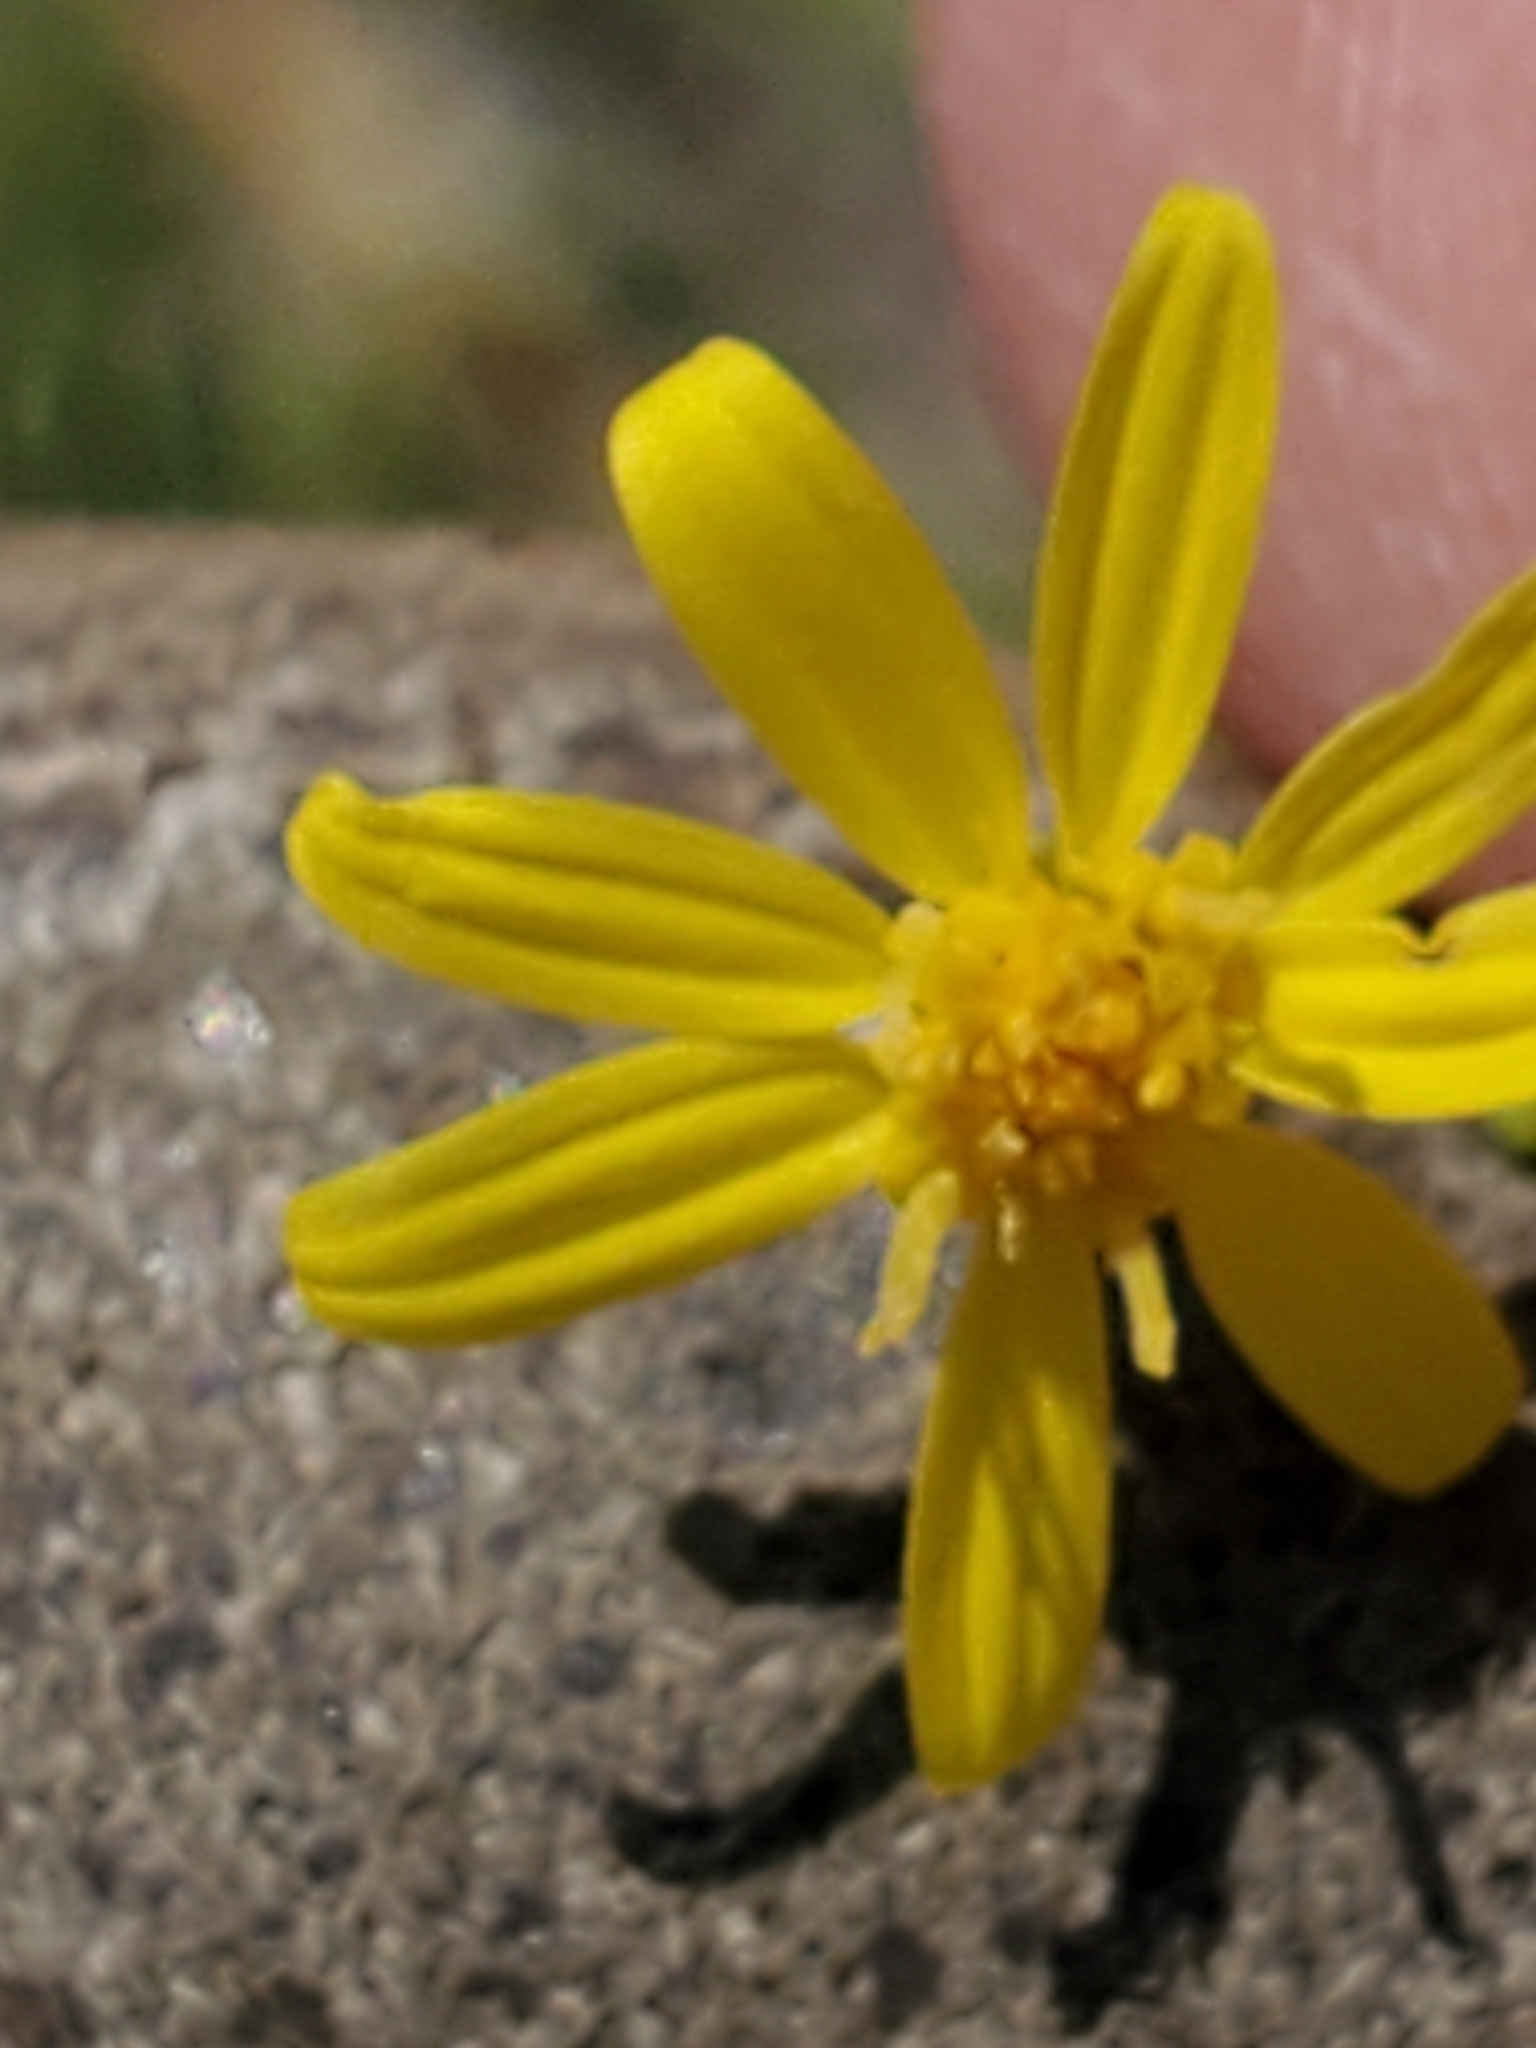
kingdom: Plantae
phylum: Tracheophyta
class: Magnoliopsida
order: Asterales
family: Asteraceae
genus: Gutierrezia
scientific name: Gutierrezia texana
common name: Texas snakeweed
